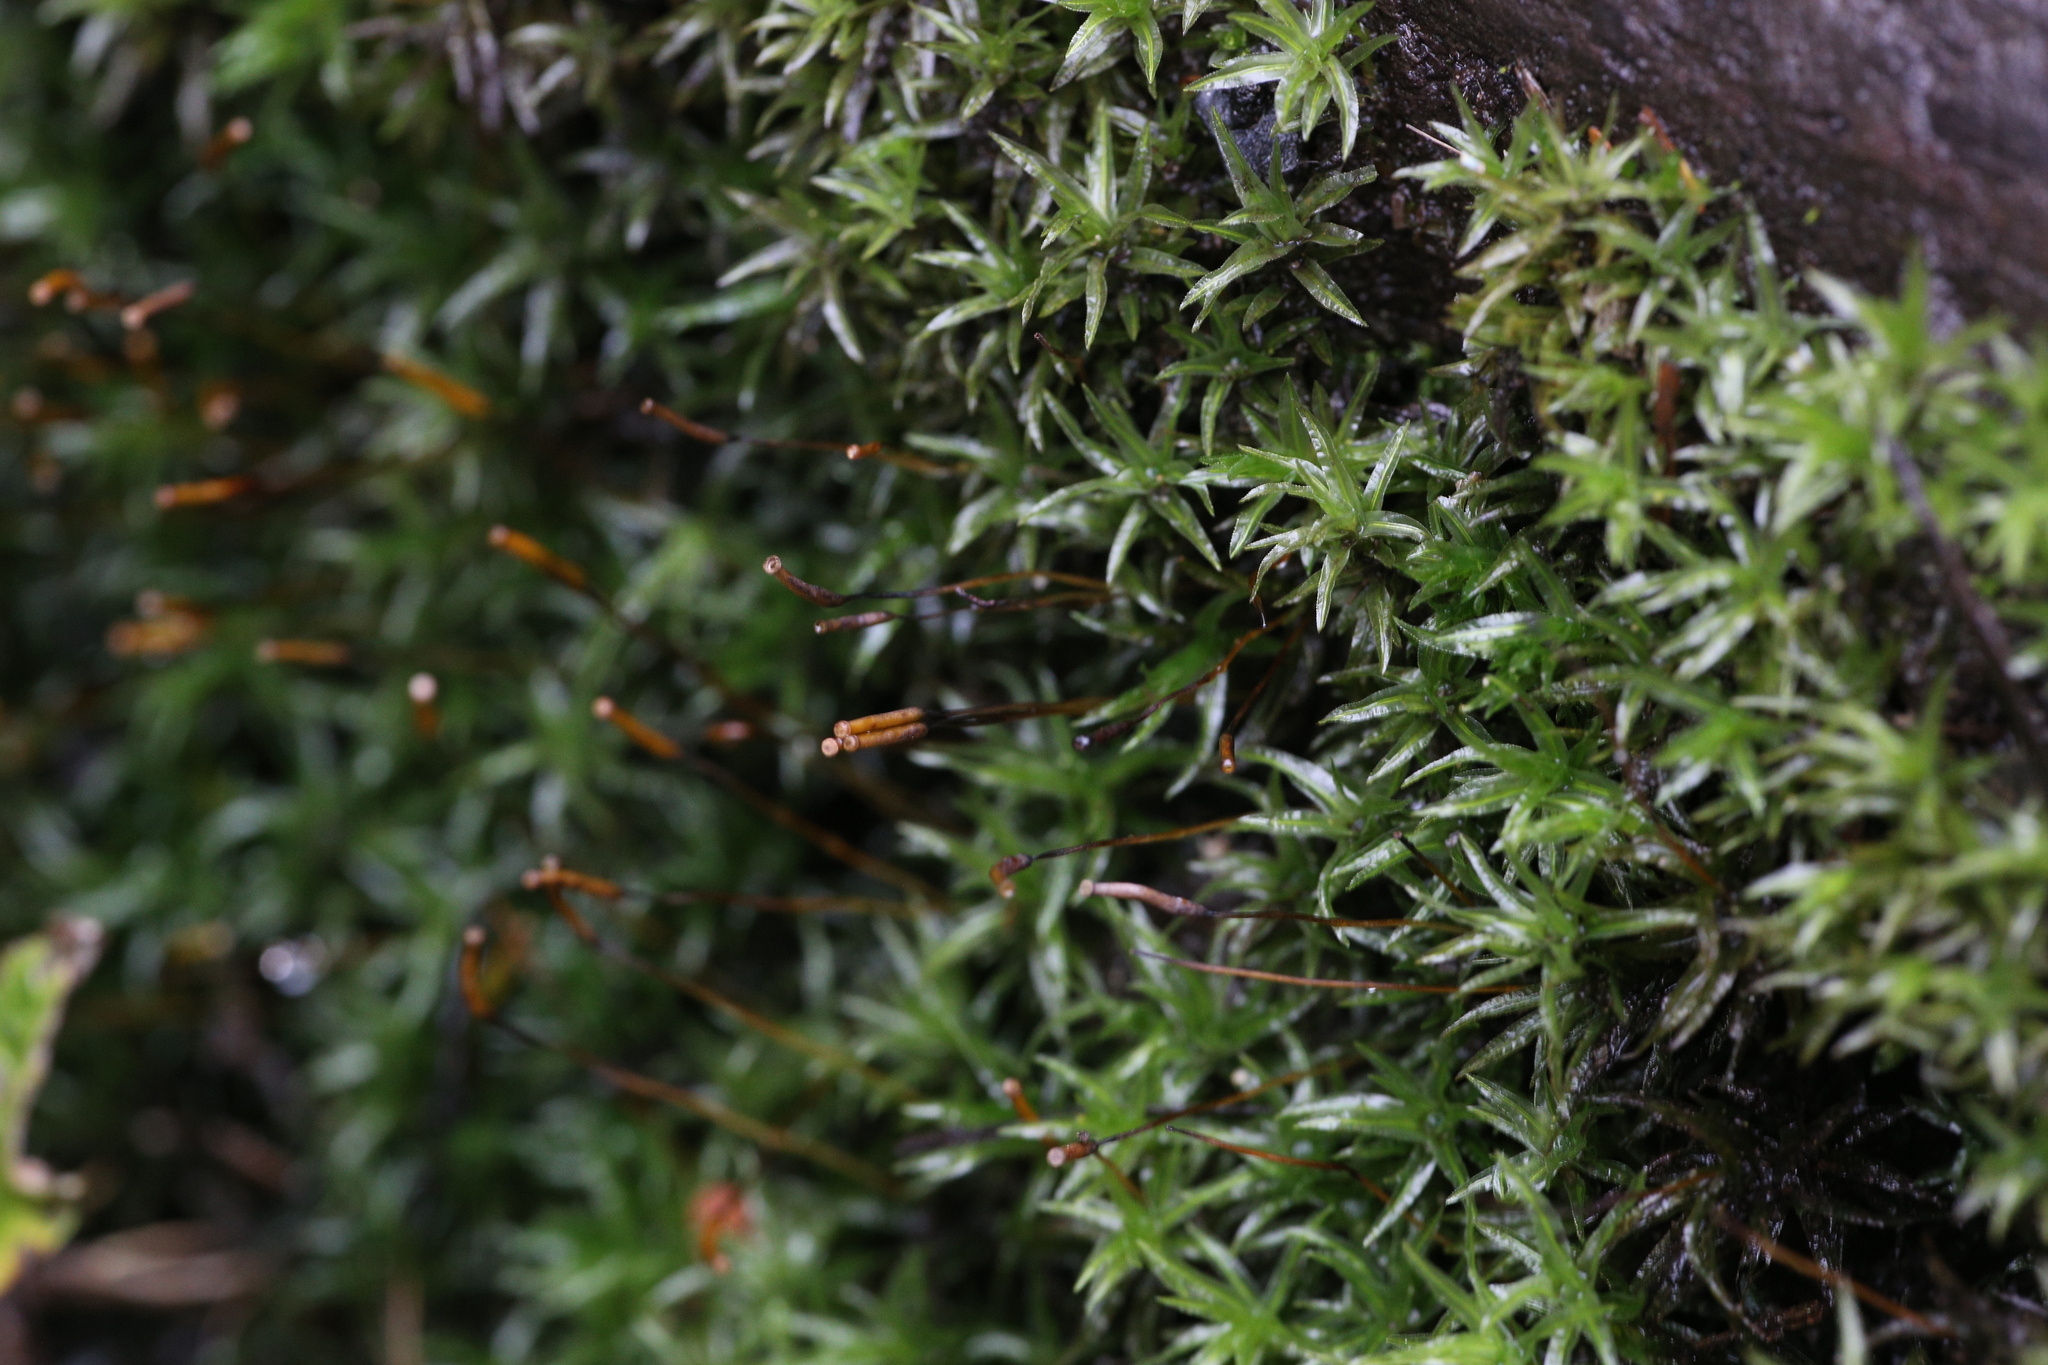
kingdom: Plantae
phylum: Bryophyta
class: Polytrichopsida
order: Polytrichales
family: Polytrichaceae
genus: Atrichum
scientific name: Atrichum androgynum
